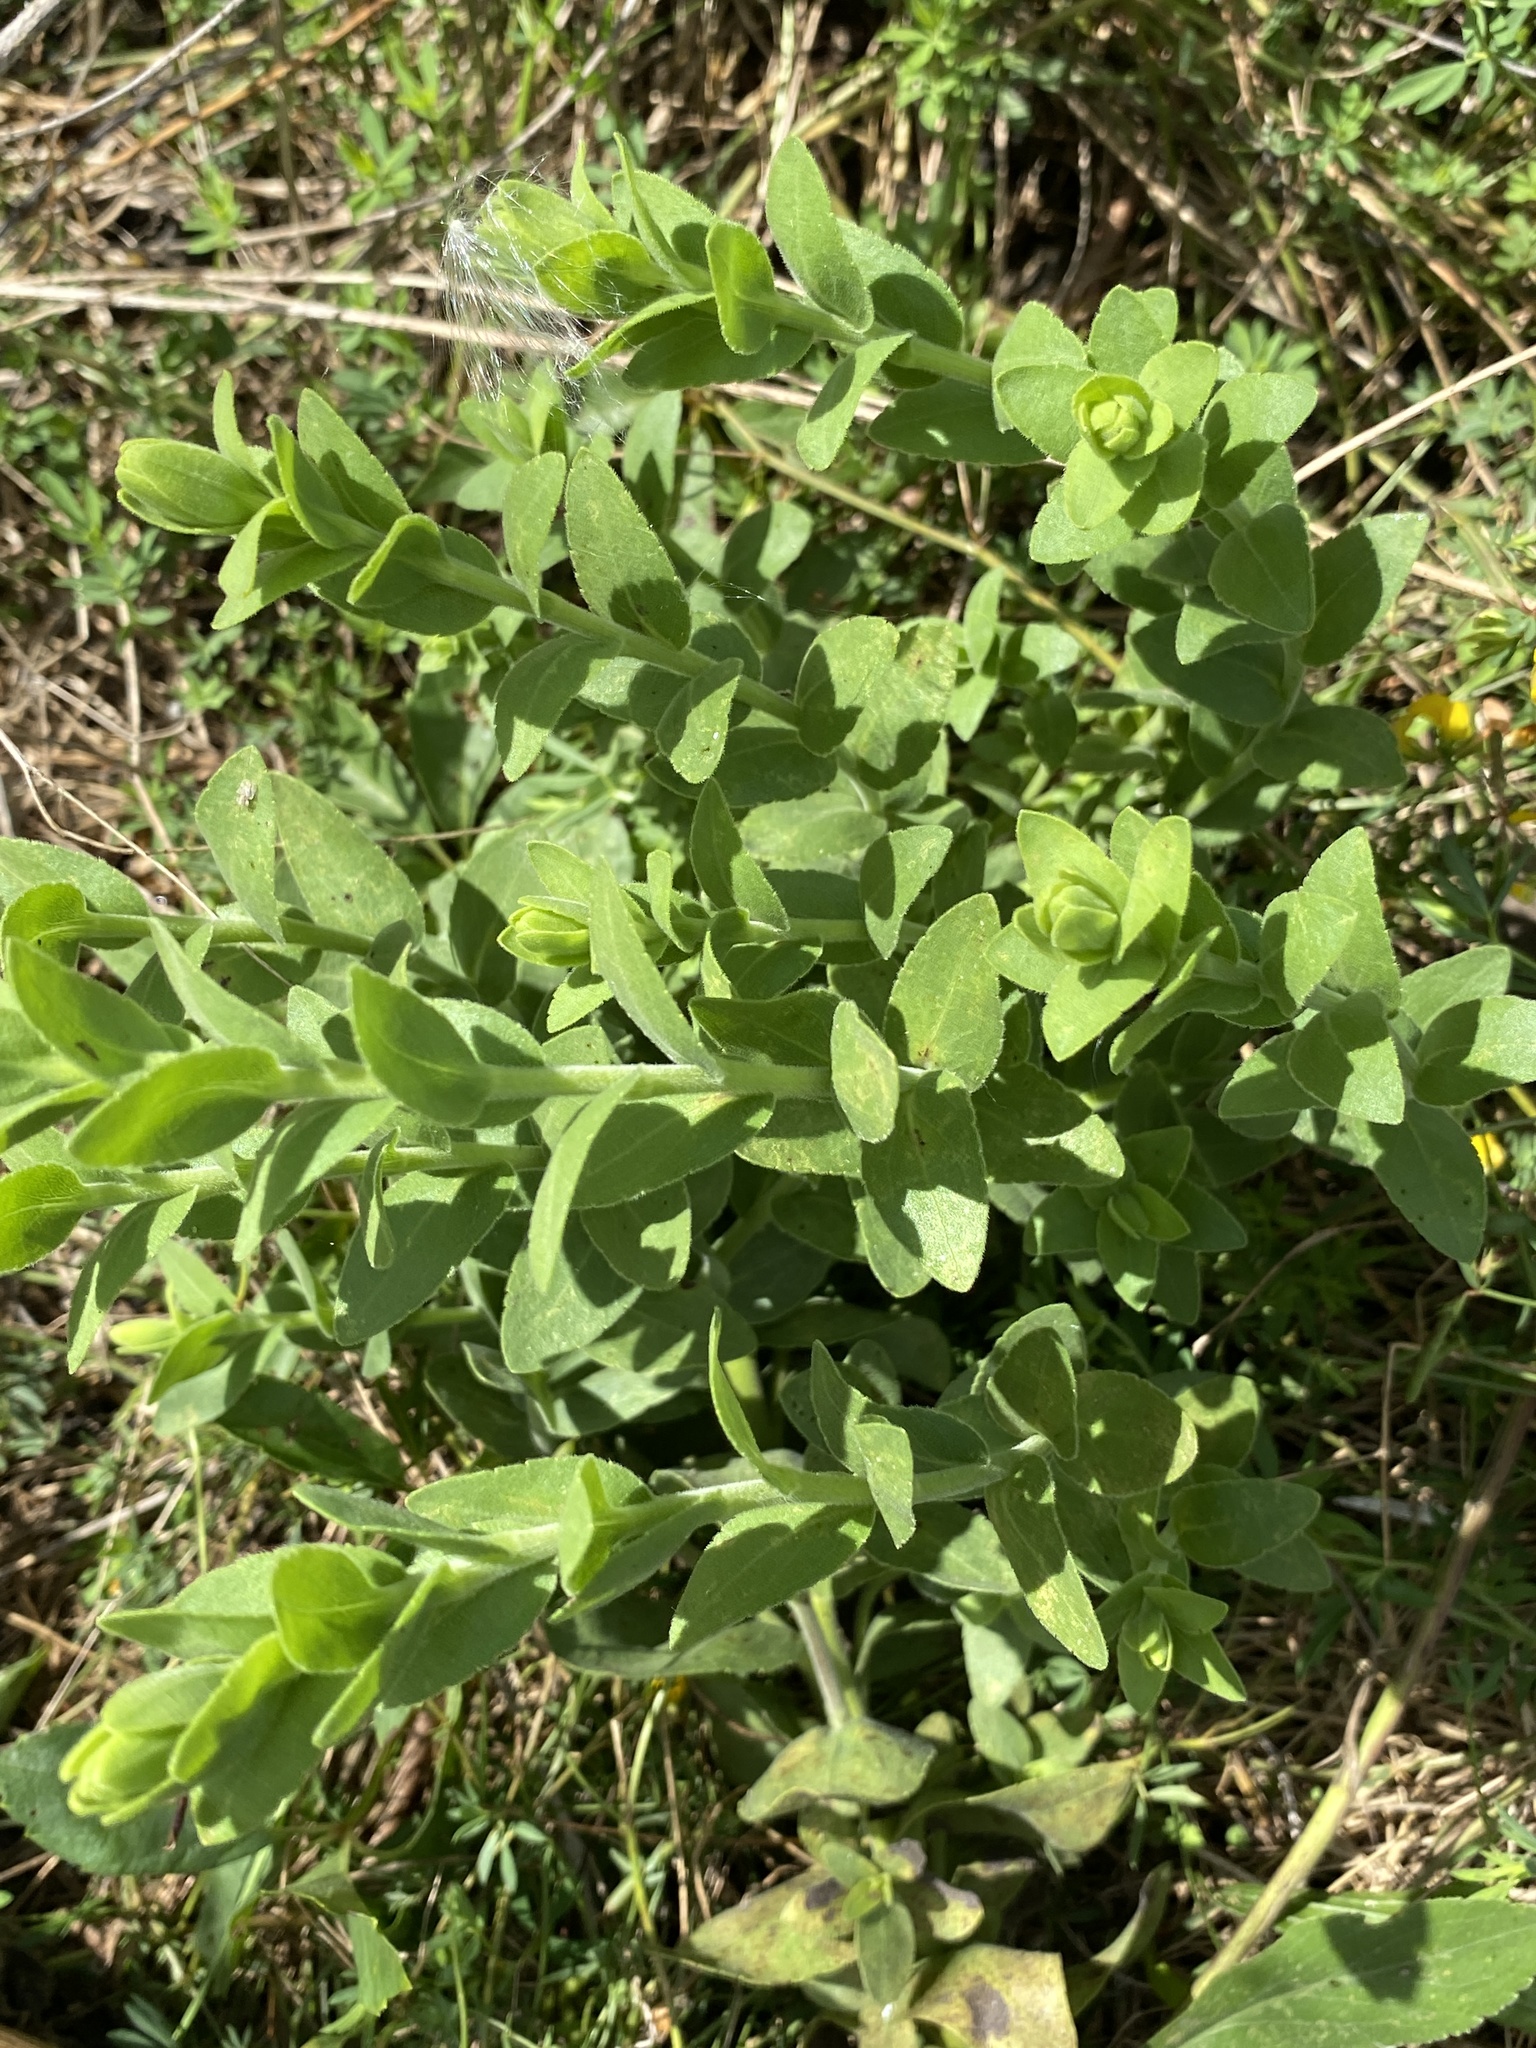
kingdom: Plantae
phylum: Tracheophyta
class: Magnoliopsida
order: Asterales
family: Asteraceae
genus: Solidago
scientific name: Solidago rigida
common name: Rigid goldenrod
